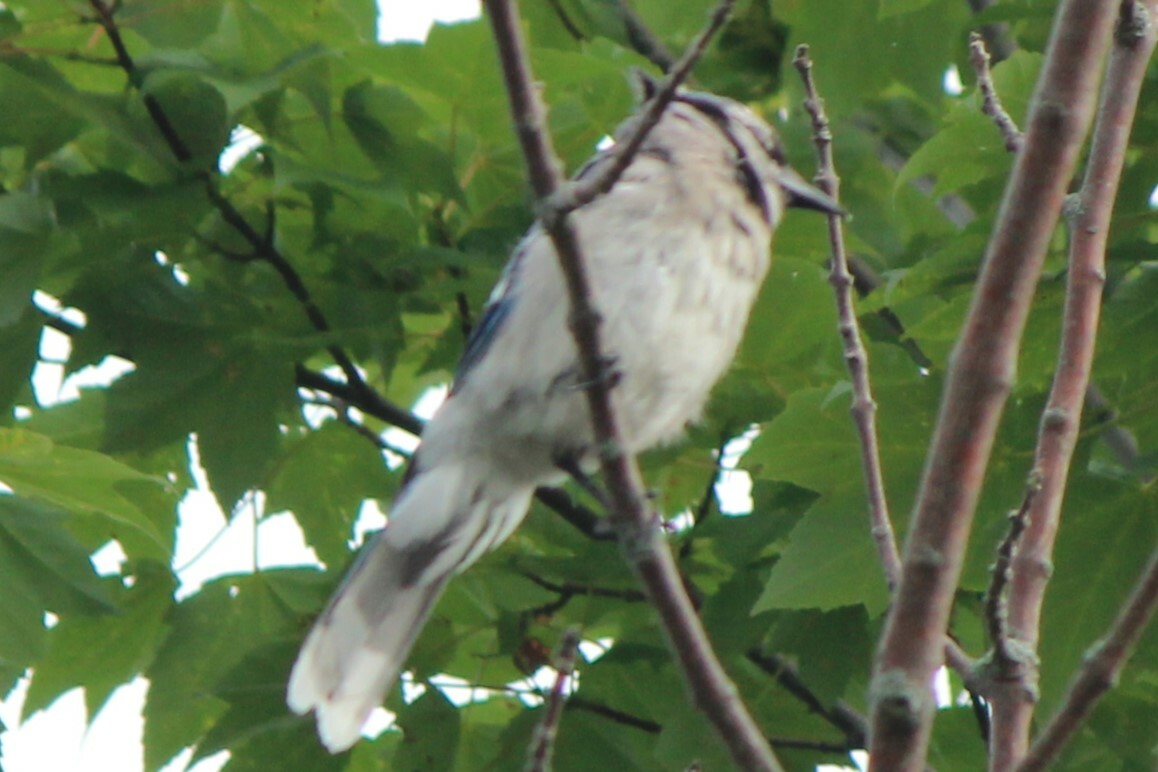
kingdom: Animalia
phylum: Chordata
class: Aves
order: Passeriformes
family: Corvidae
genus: Cyanocitta
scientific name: Cyanocitta cristata
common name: Blue jay
